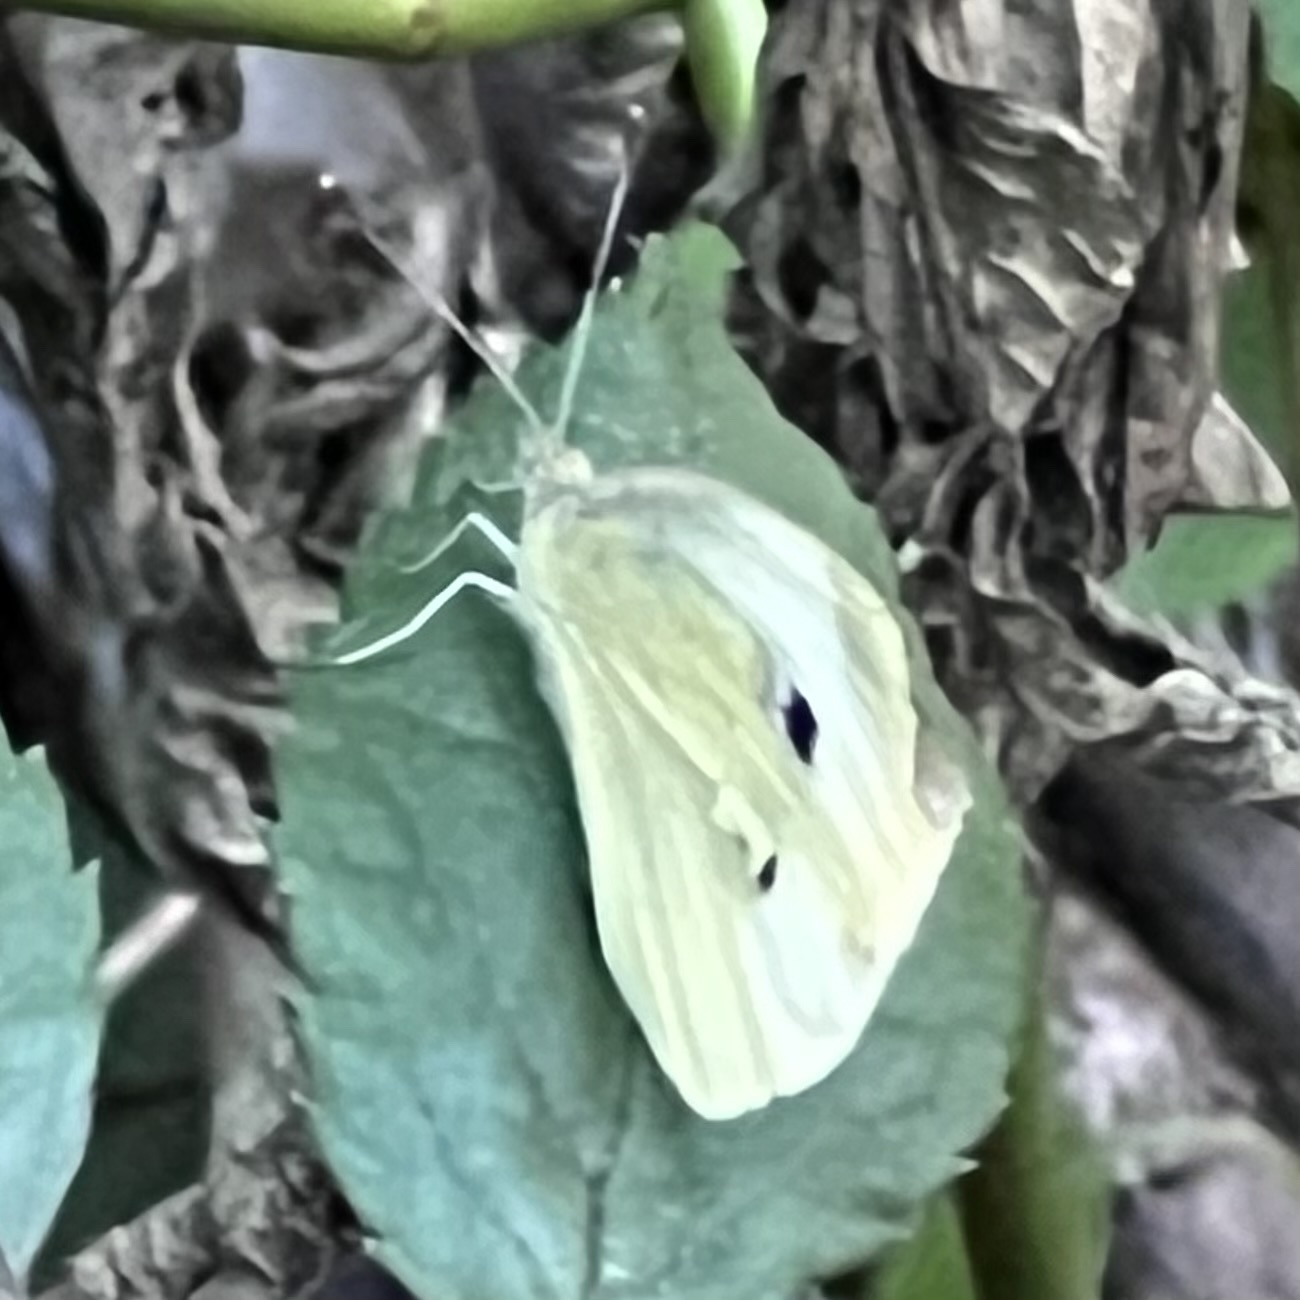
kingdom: Animalia
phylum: Arthropoda
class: Insecta
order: Lepidoptera
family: Pieridae
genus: Pieris
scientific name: Pieris rapae
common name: Small white
